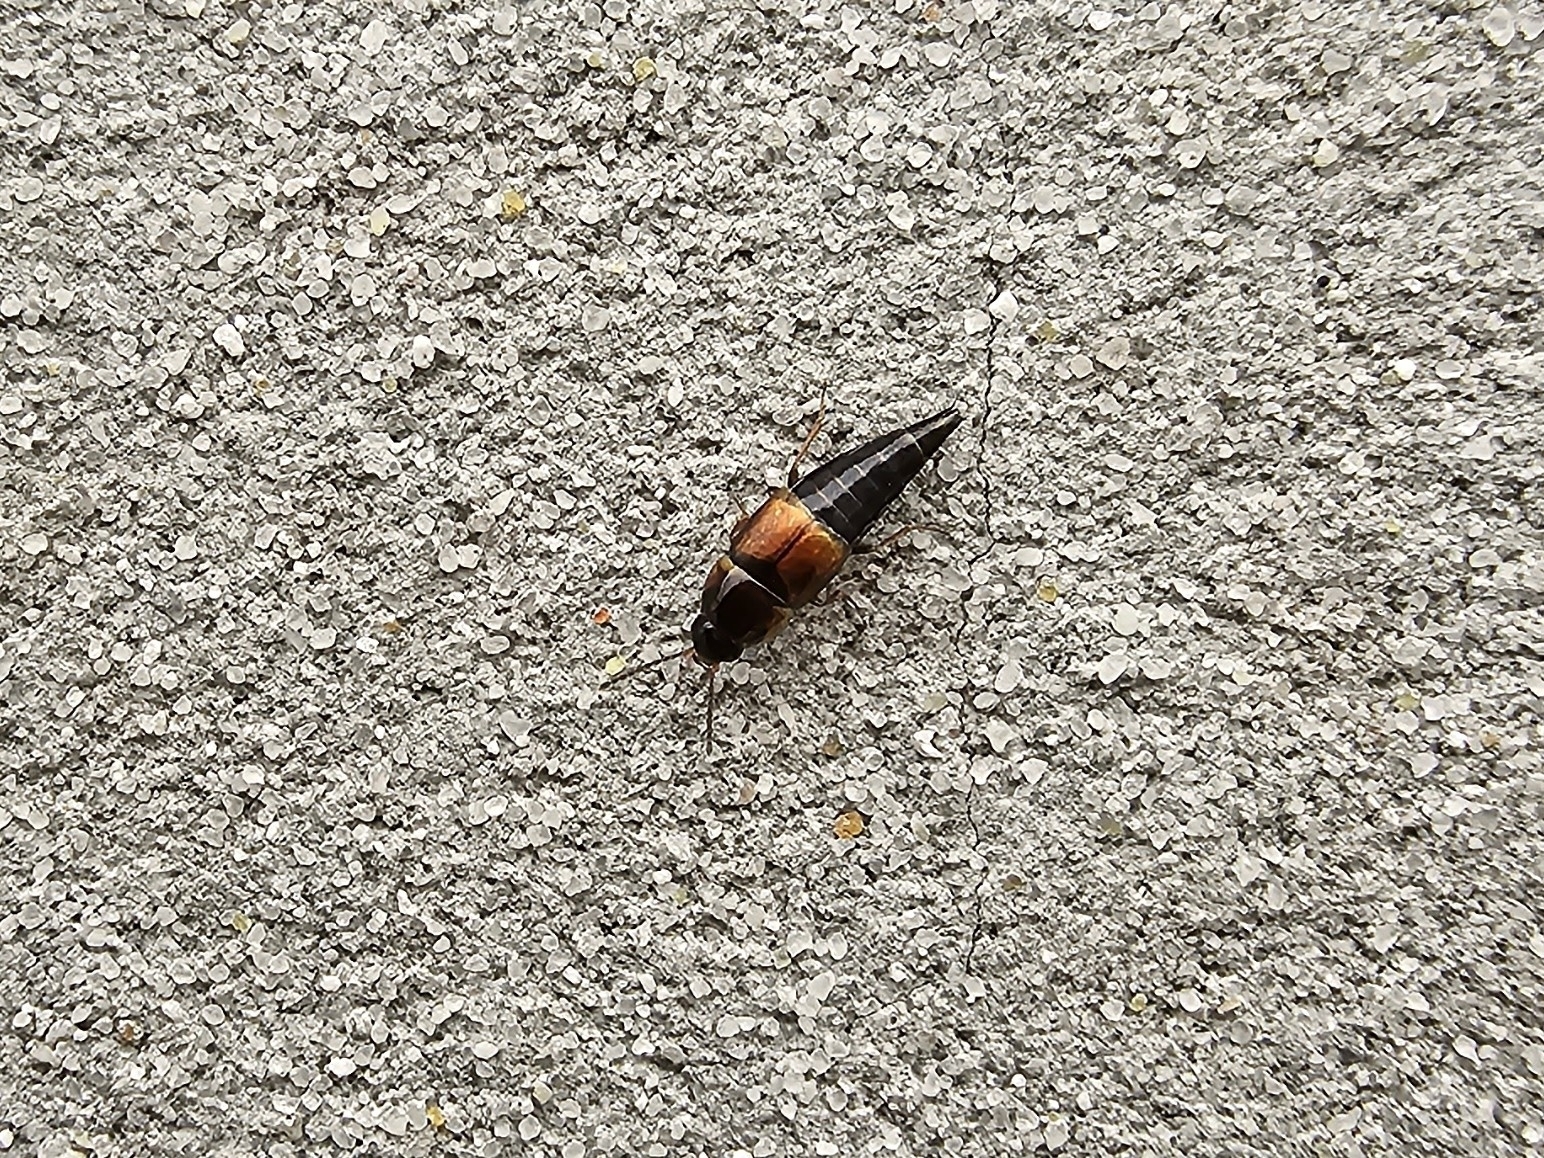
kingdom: Animalia
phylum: Arthropoda
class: Insecta
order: Coleoptera
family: Staphylinidae
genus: Tachyporus
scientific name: Tachyporus hypnorum
